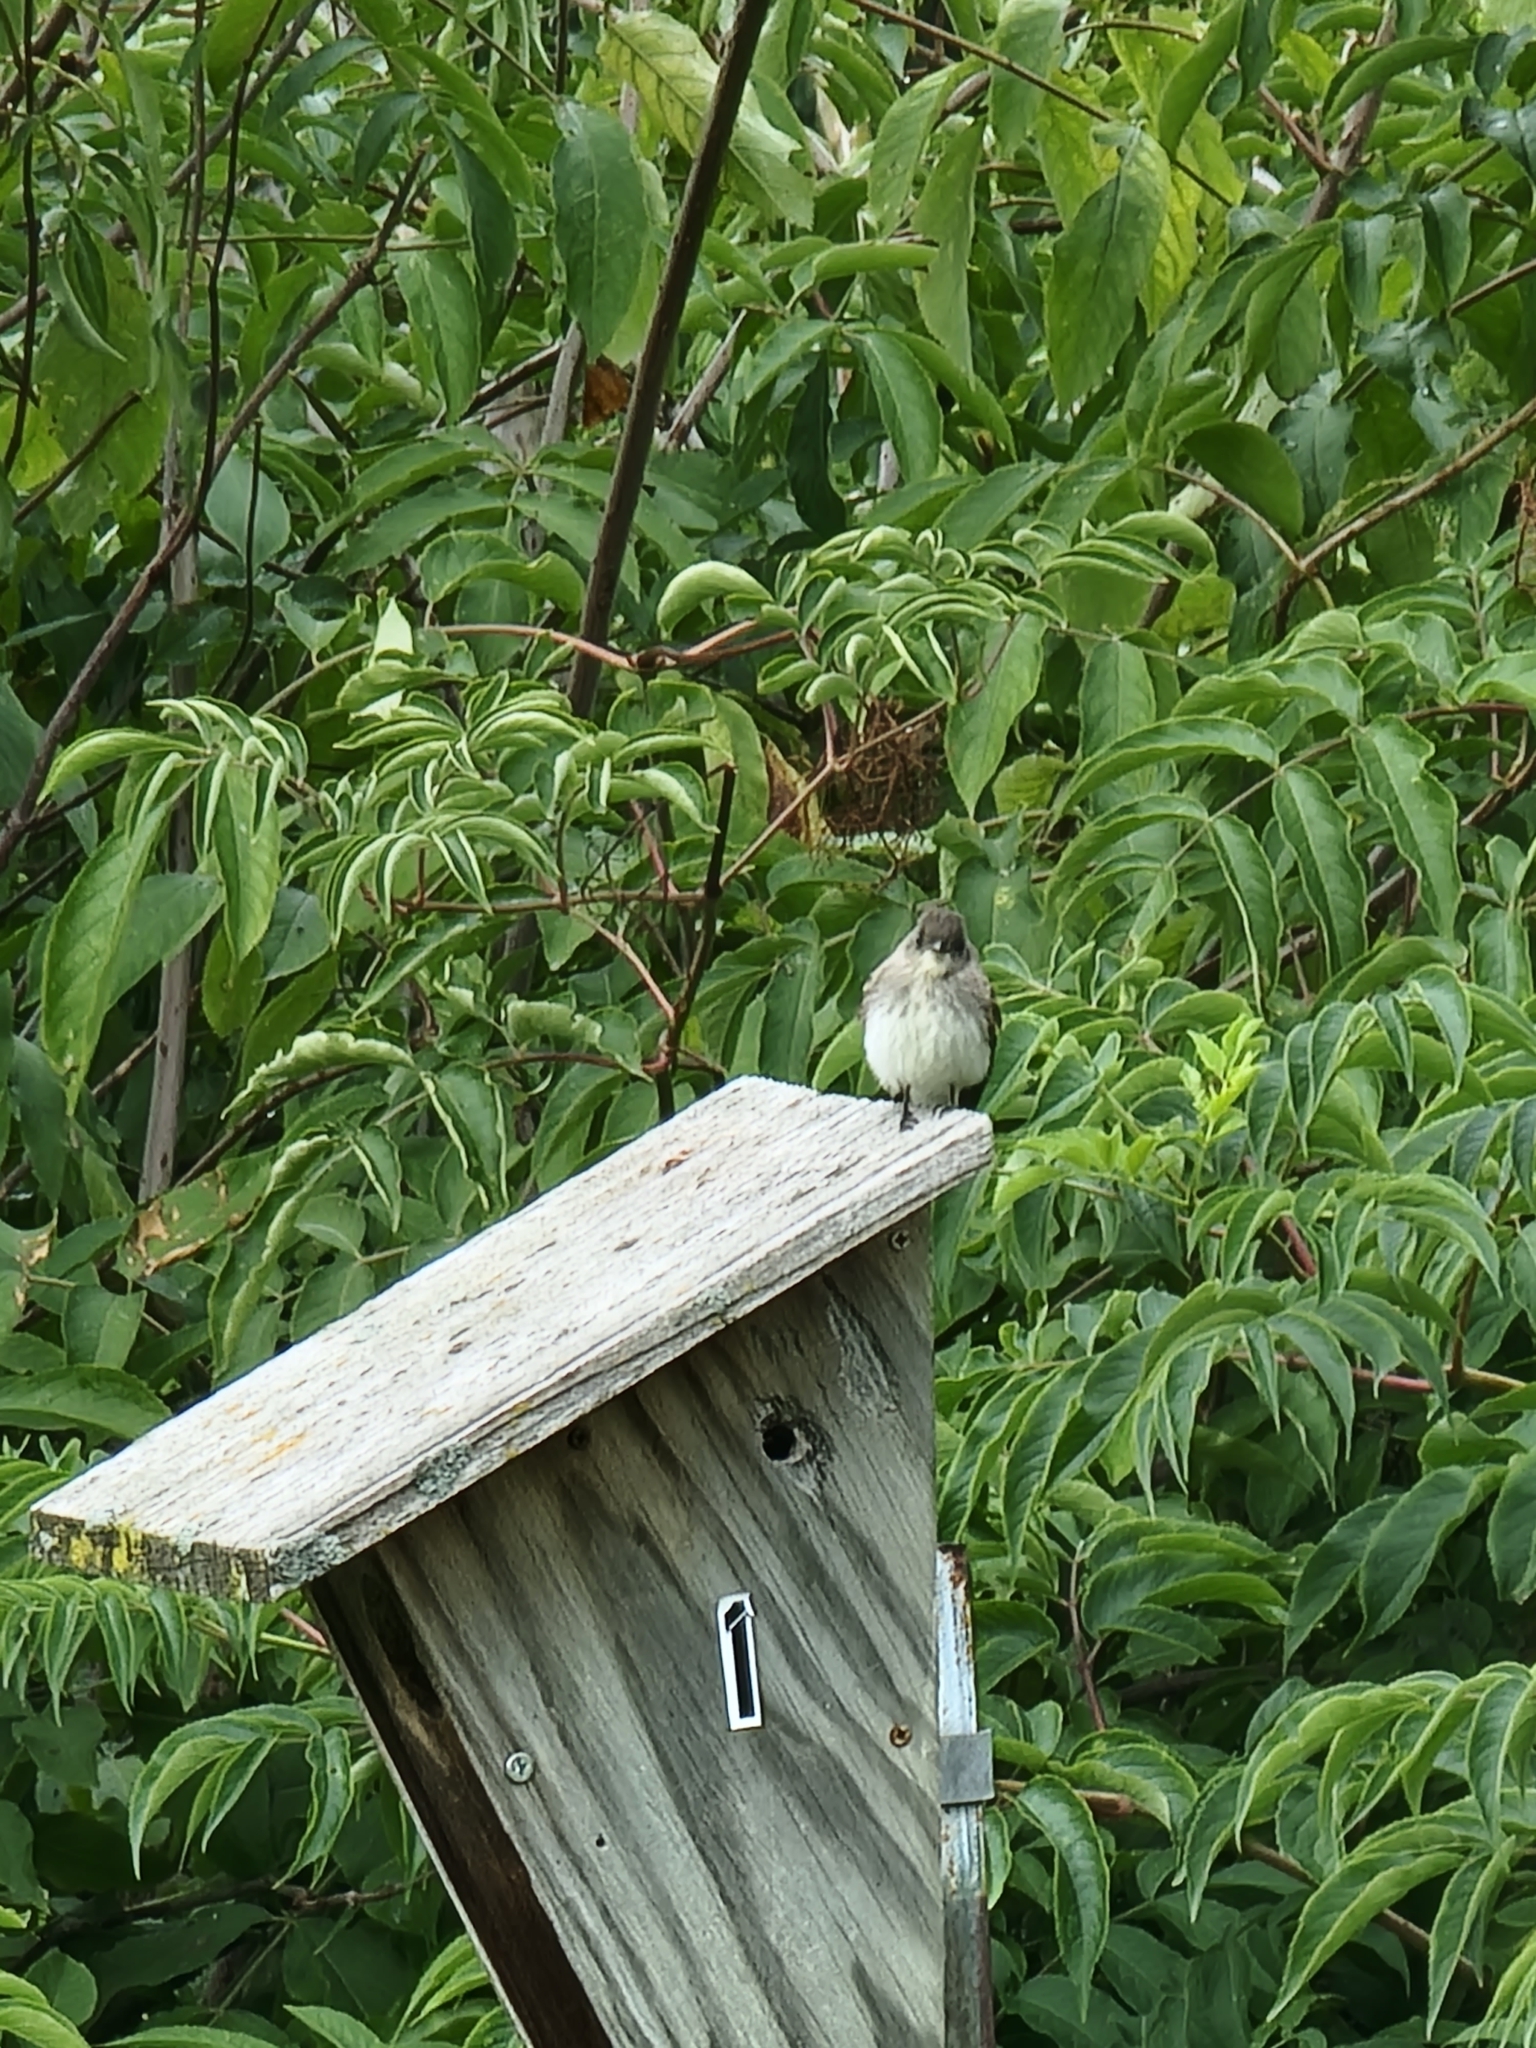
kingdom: Animalia
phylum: Chordata
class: Aves
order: Passeriformes
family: Tyrannidae
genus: Sayornis
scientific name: Sayornis phoebe
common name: Eastern phoebe
